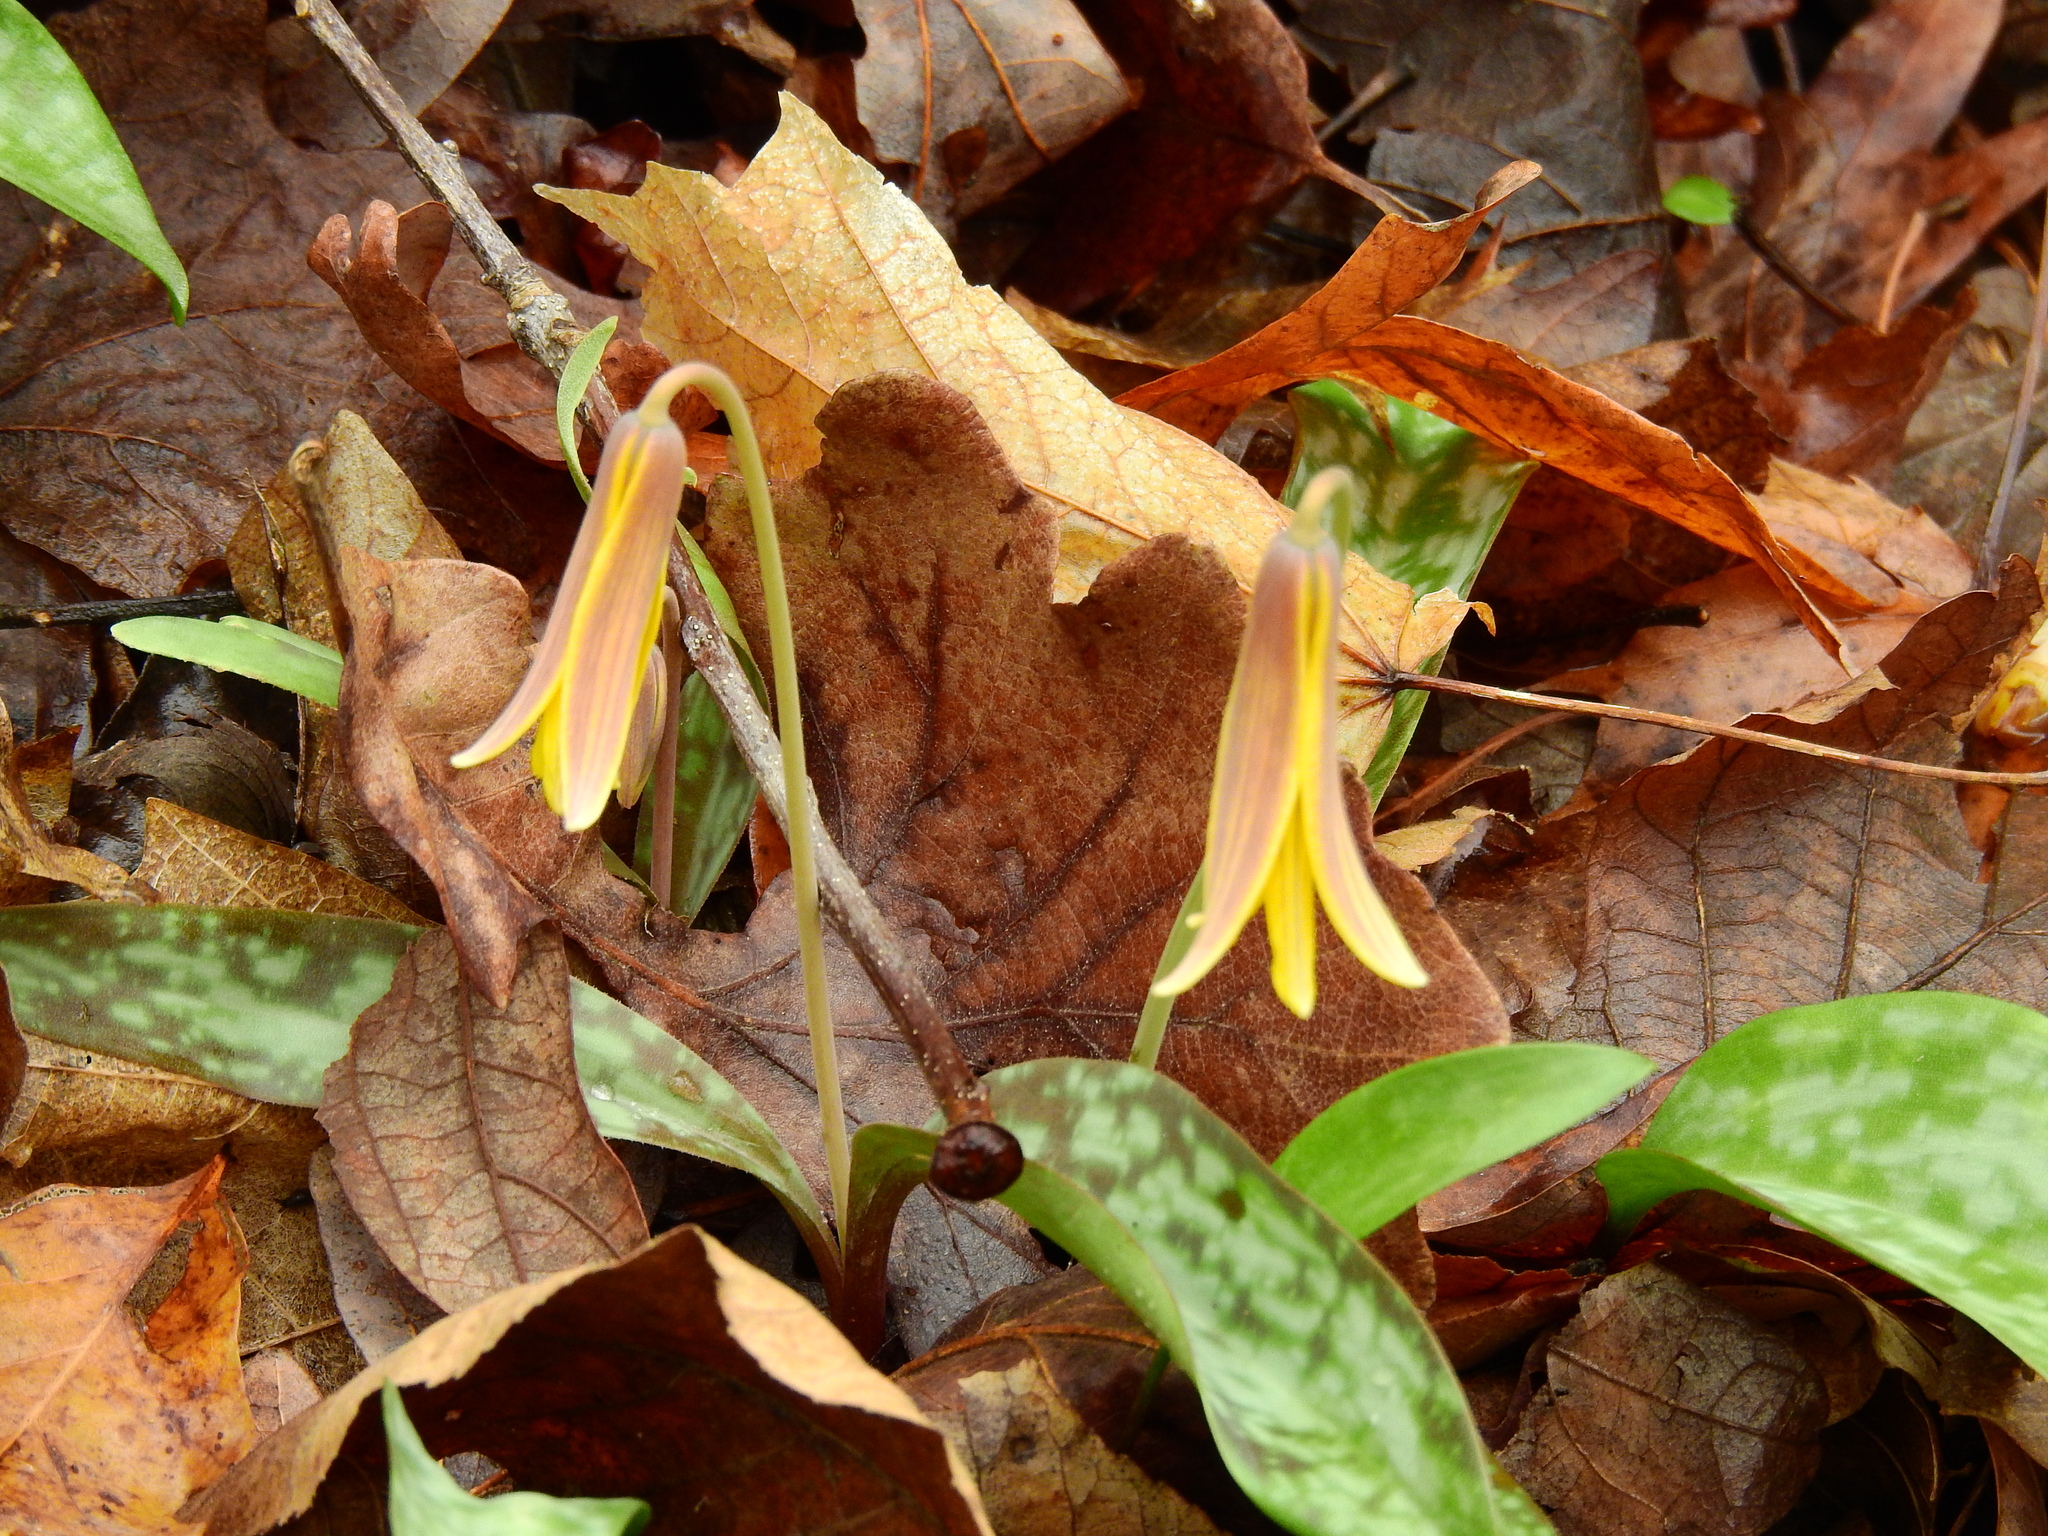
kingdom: Plantae
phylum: Tracheophyta
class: Liliopsida
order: Liliales
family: Liliaceae
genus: Erythronium
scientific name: Erythronium americanum
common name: Yellow adder's-tongue
